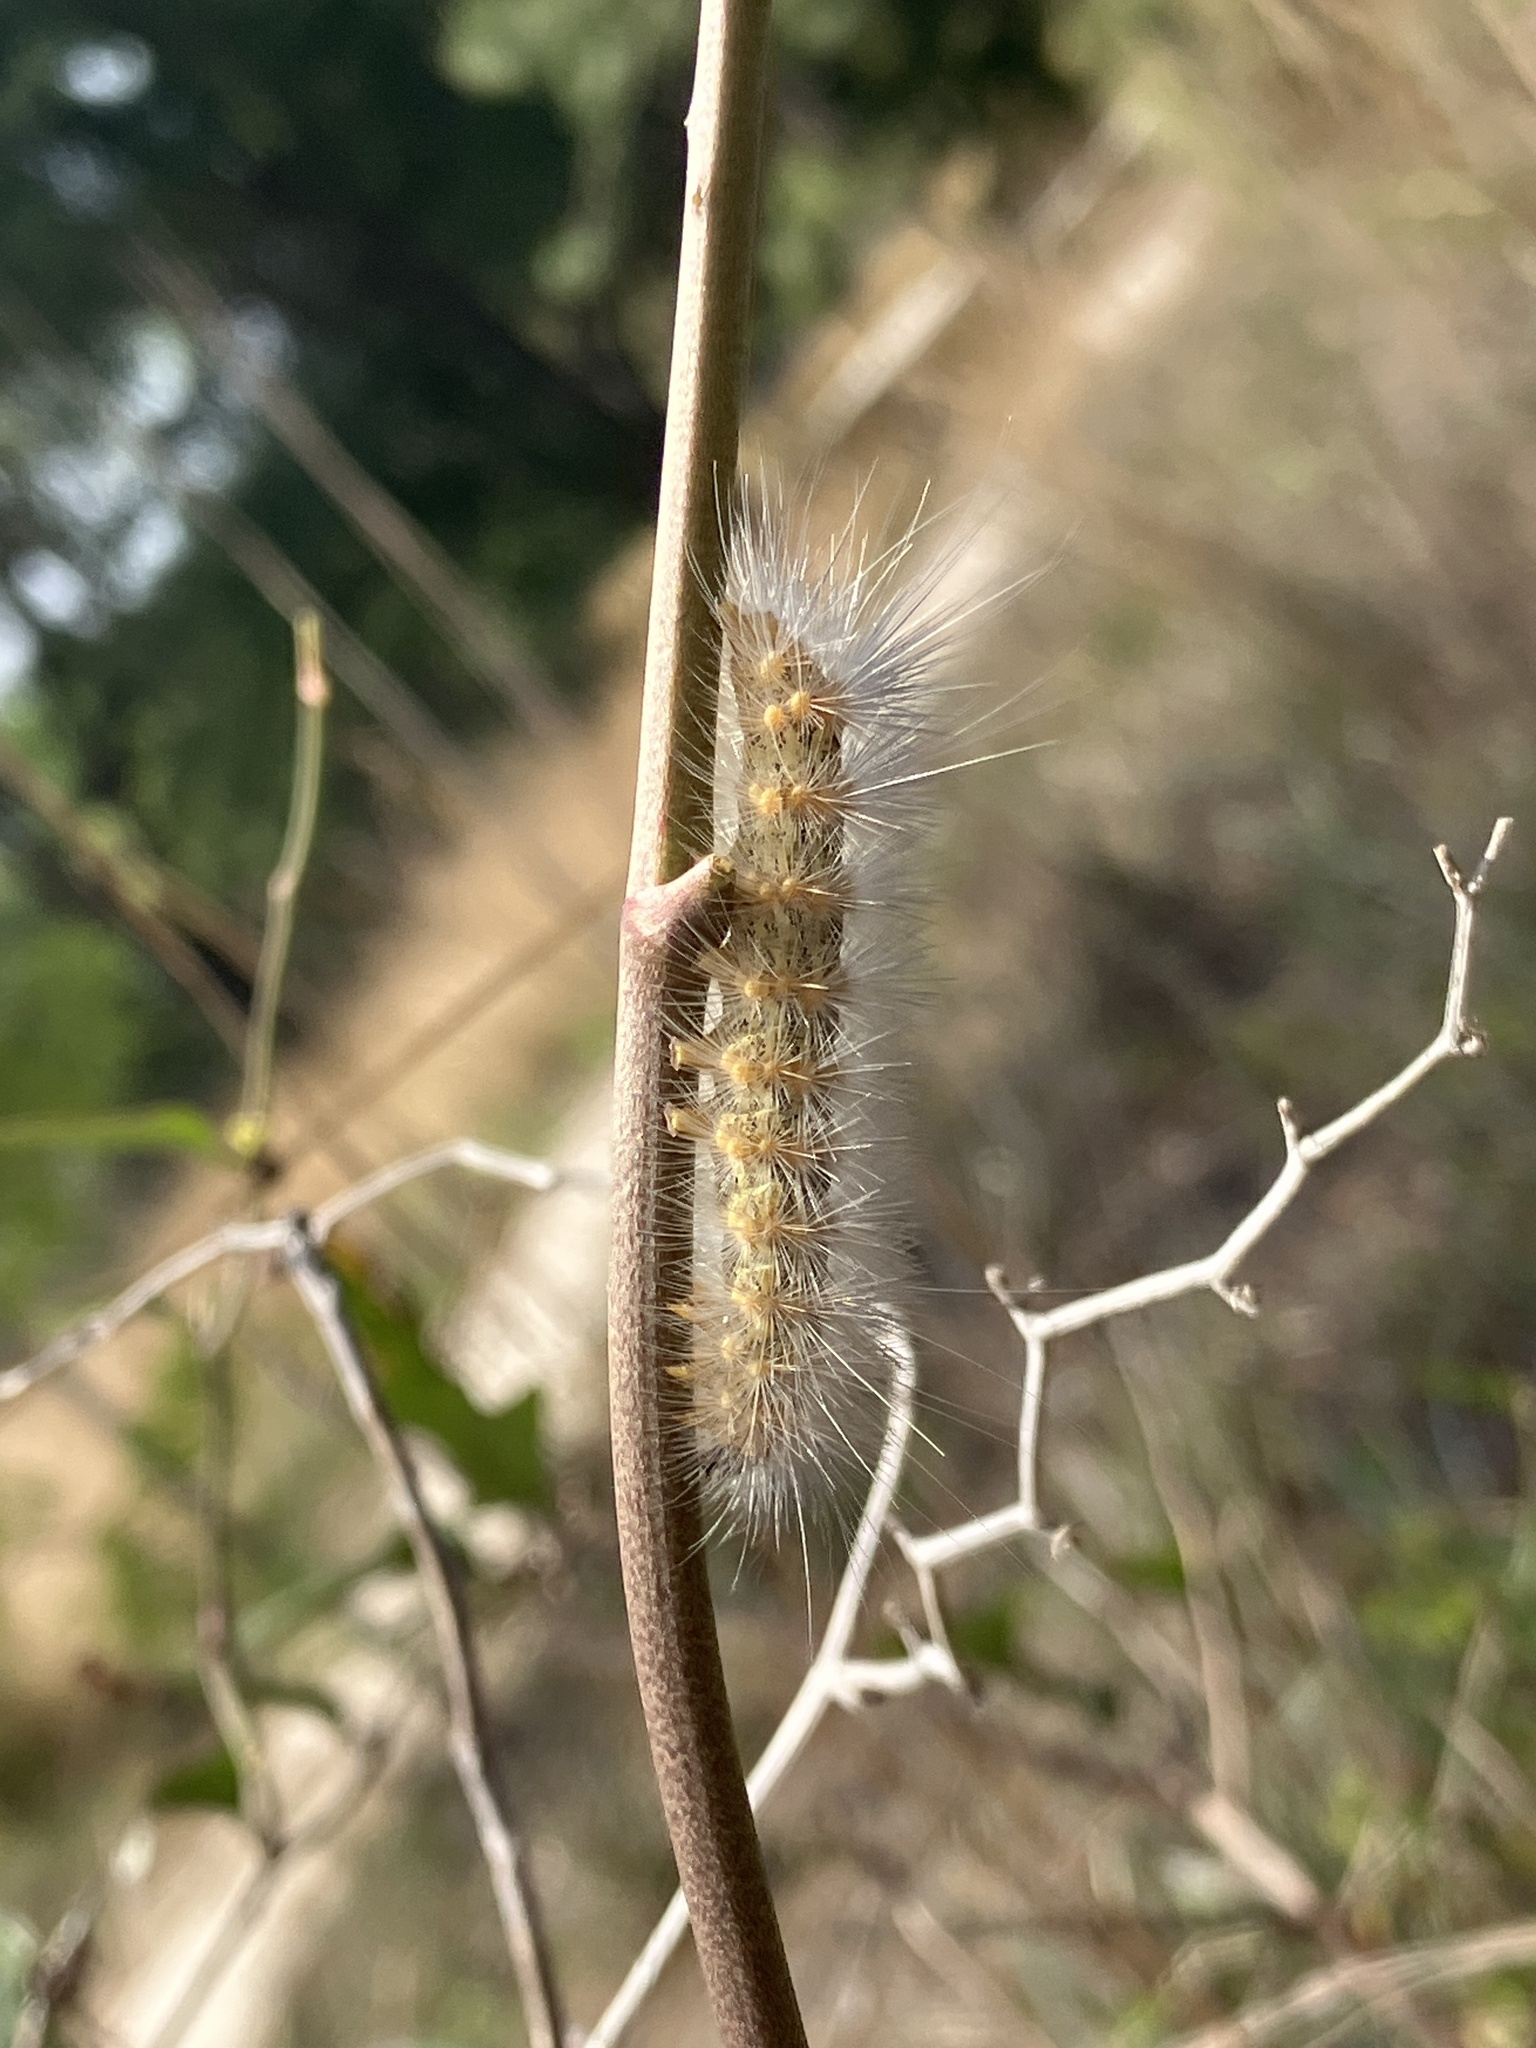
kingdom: Animalia
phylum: Arthropoda
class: Insecta
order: Lepidoptera
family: Erebidae
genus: Estigmene
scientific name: Estigmene acrea
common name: Salt marsh moth
